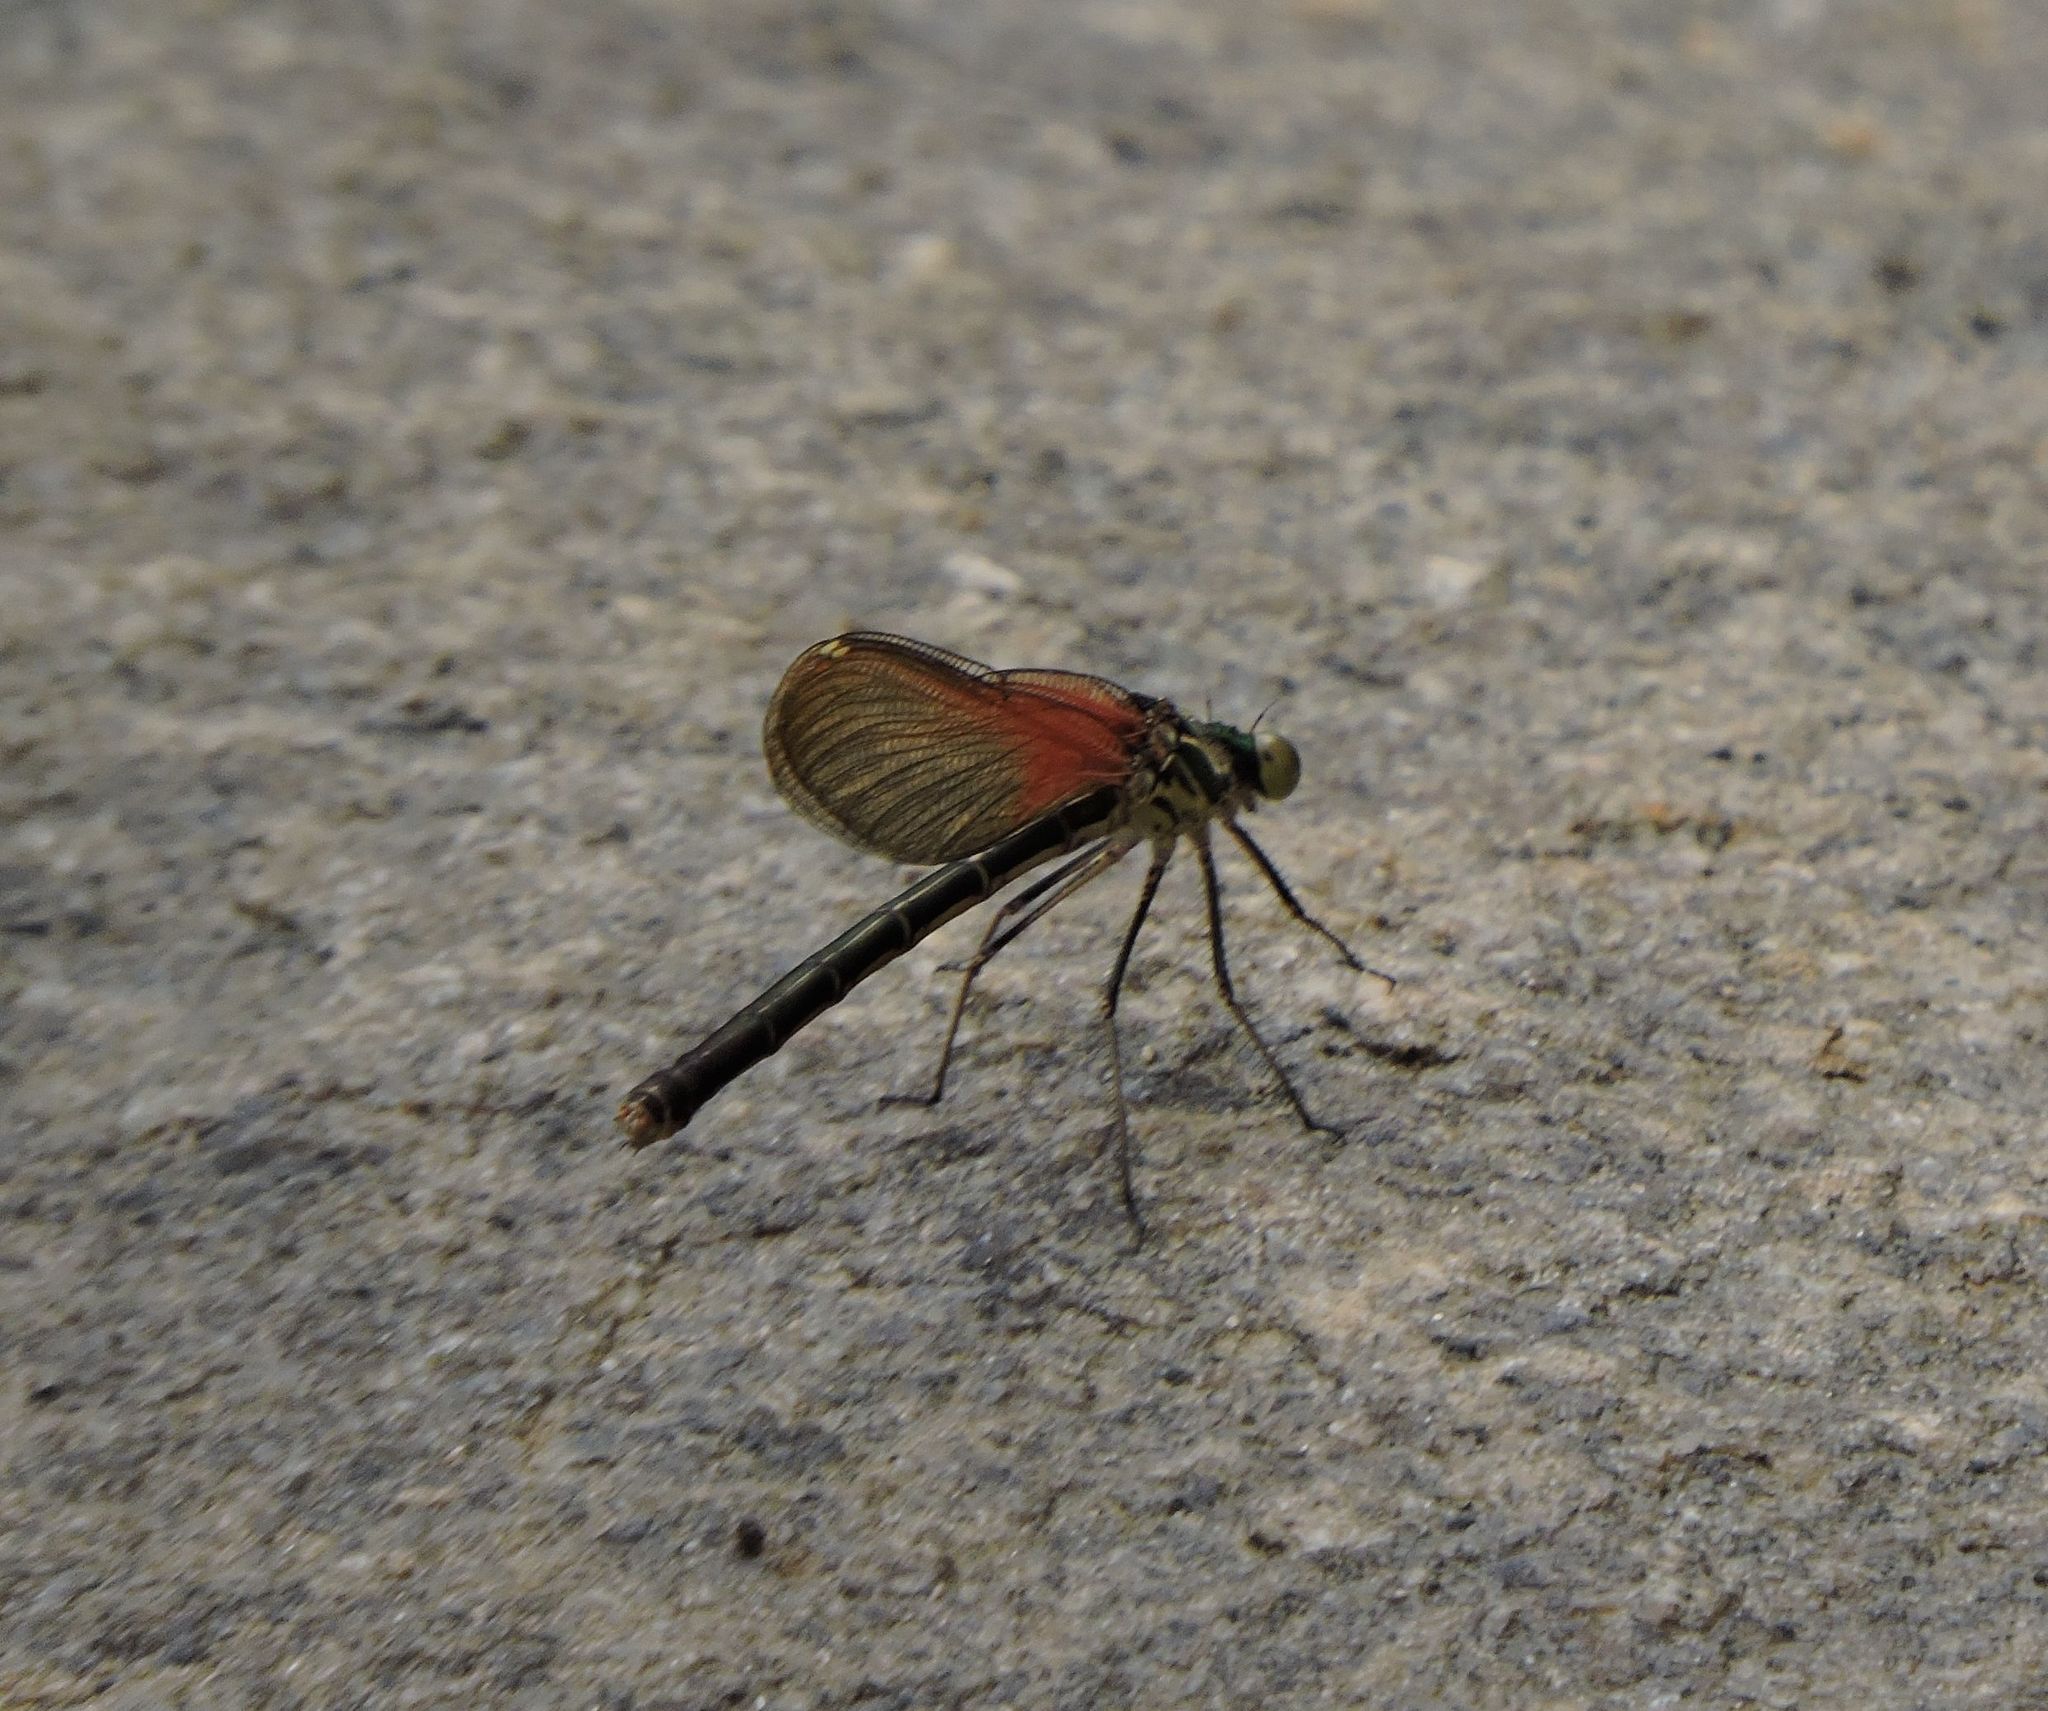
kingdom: Animalia
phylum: Arthropoda
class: Insecta
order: Odonata
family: Calopterygidae
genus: Hetaerina
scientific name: Hetaerina americana
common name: American rubyspot
